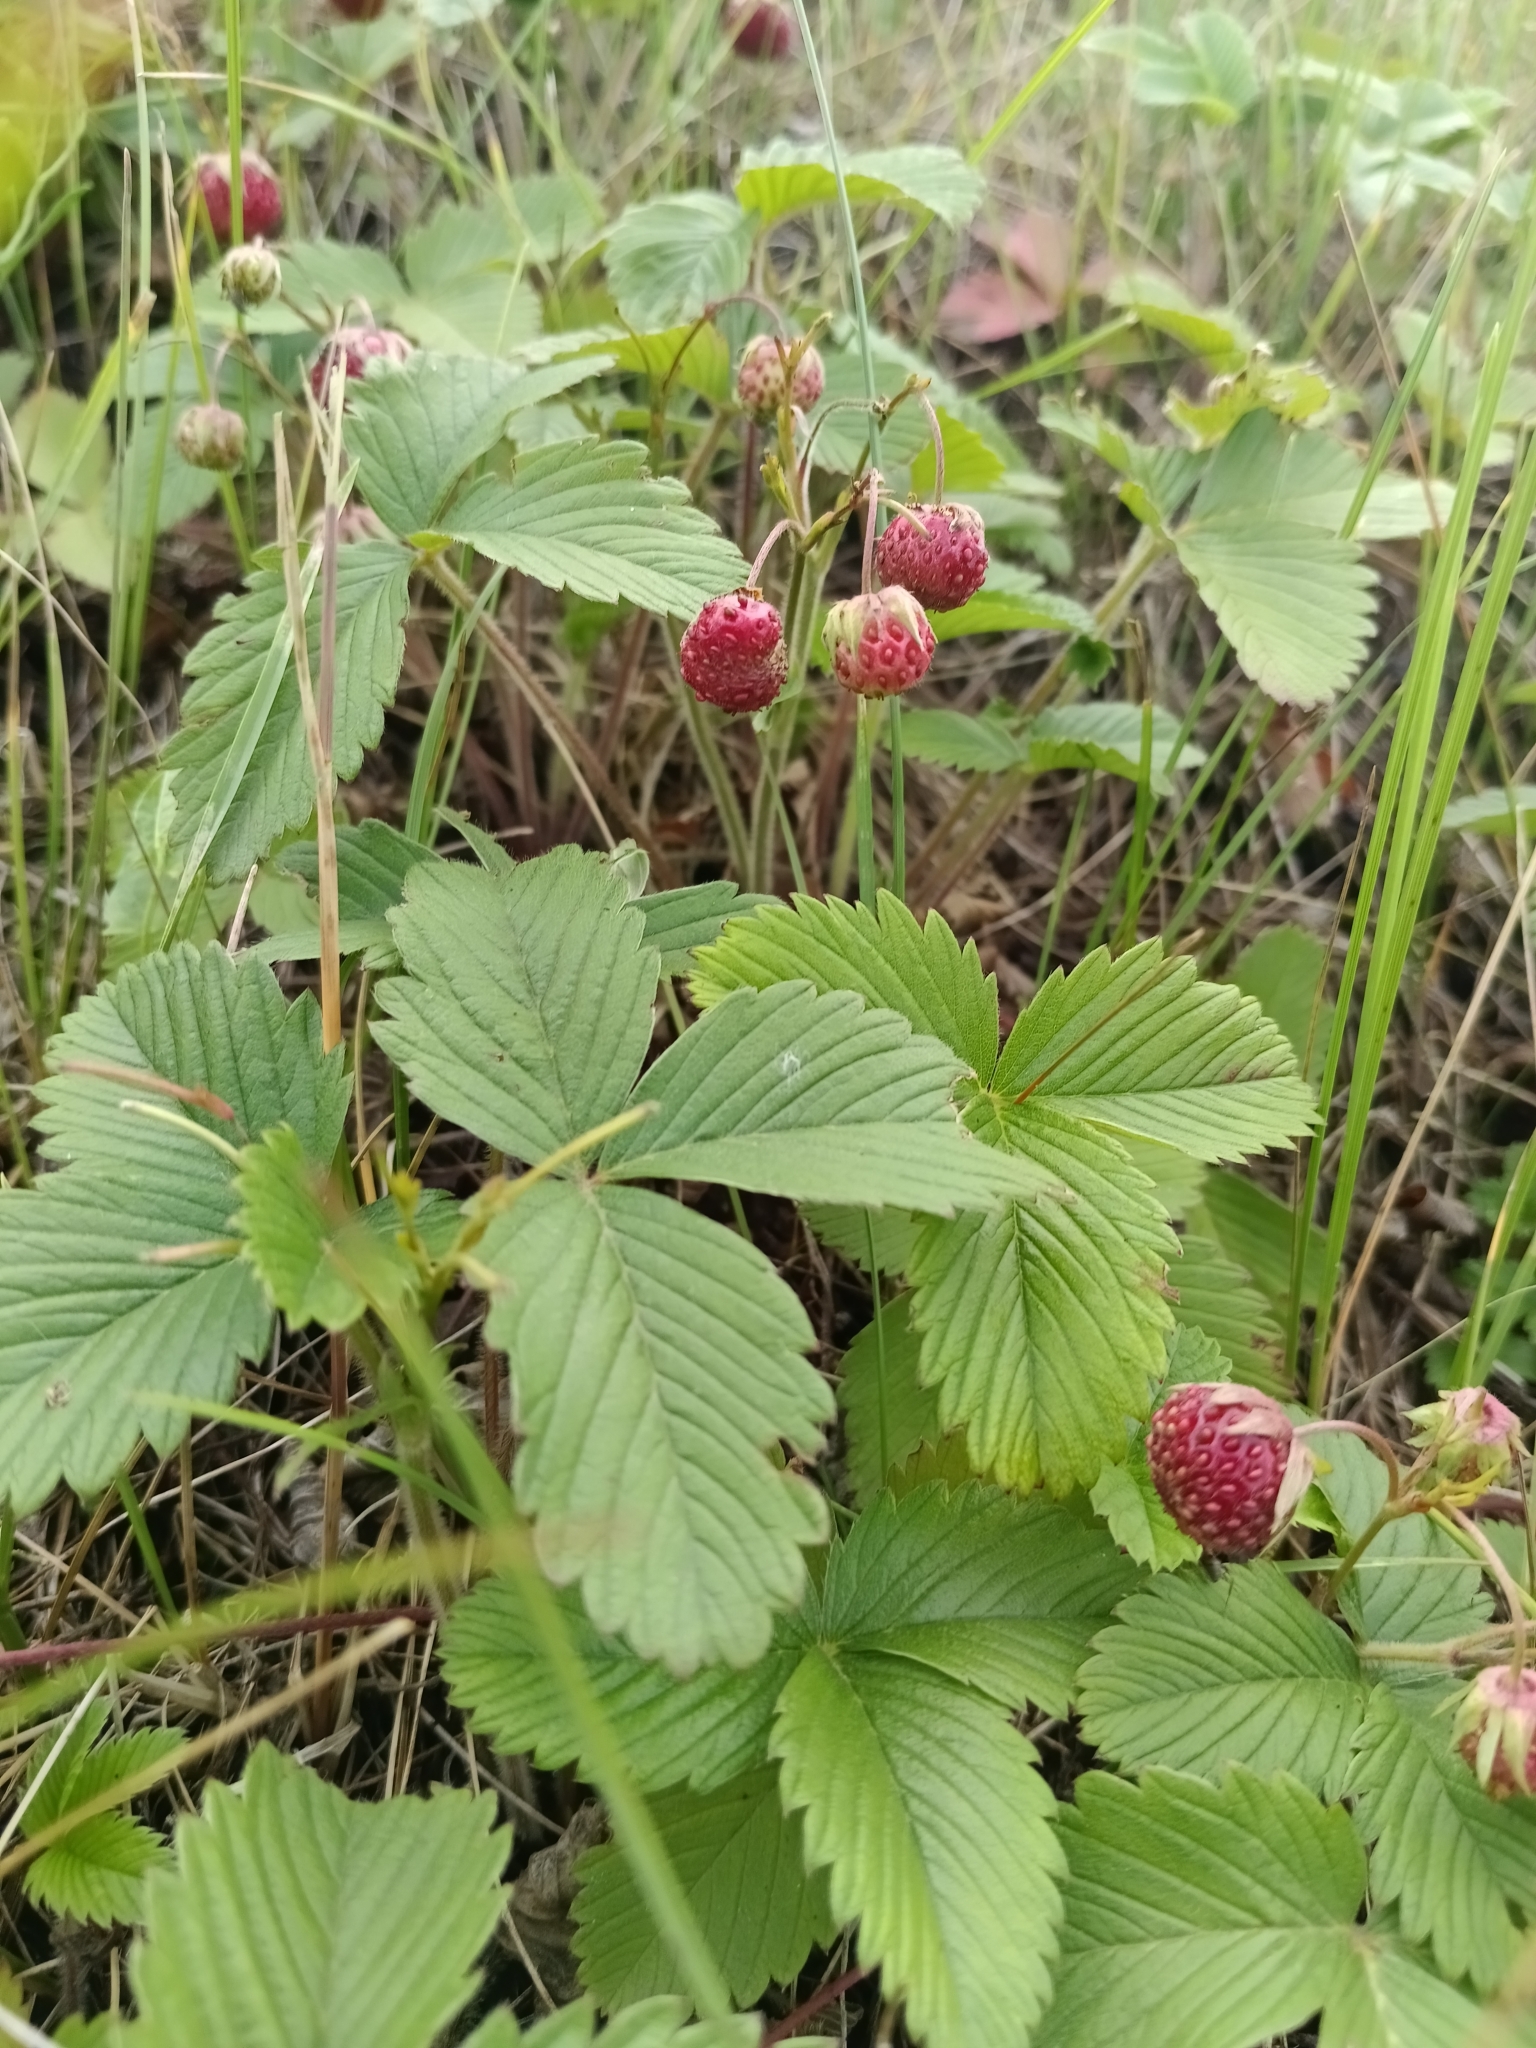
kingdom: Plantae
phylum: Tracheophyta
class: Magnoliopsida
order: Rosales
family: Rosaceae
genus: Fragaria
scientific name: Fragaria viridis
